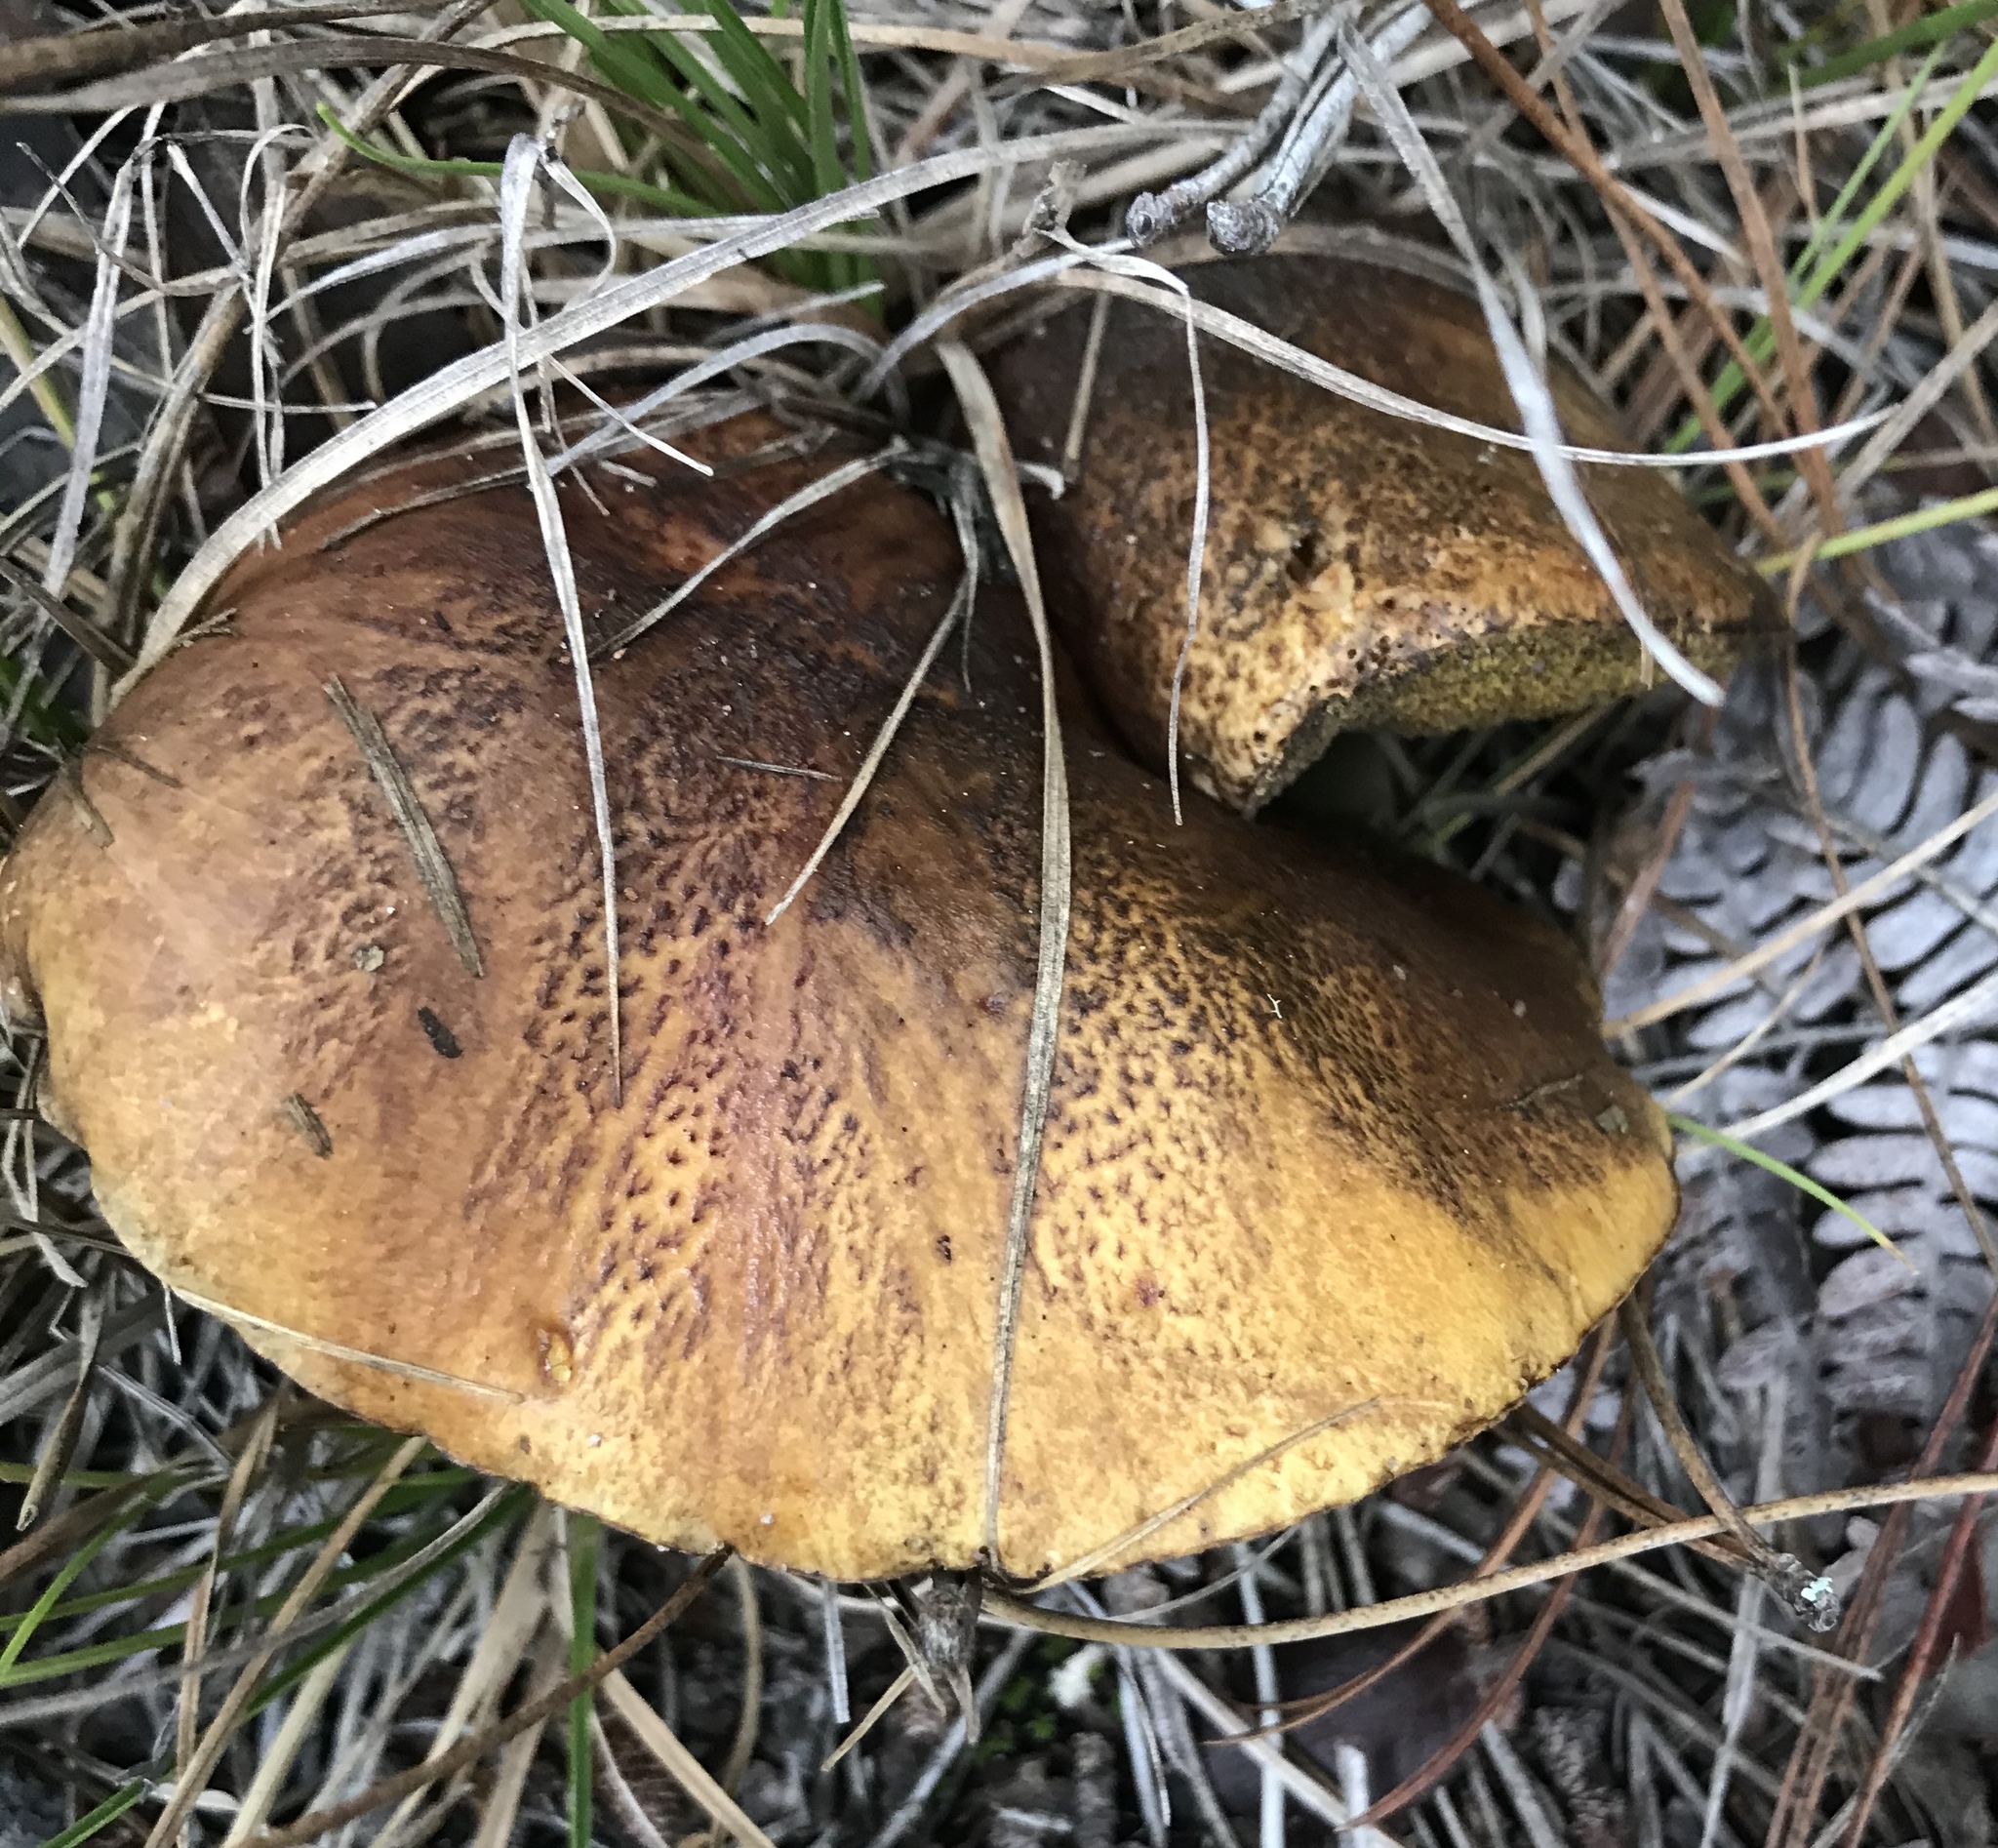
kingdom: Fungi
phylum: Basidiomycota
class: Agaricomycetes
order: Boletales
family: Suillaceae
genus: Suillus
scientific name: Suillus fuscotomentosus
